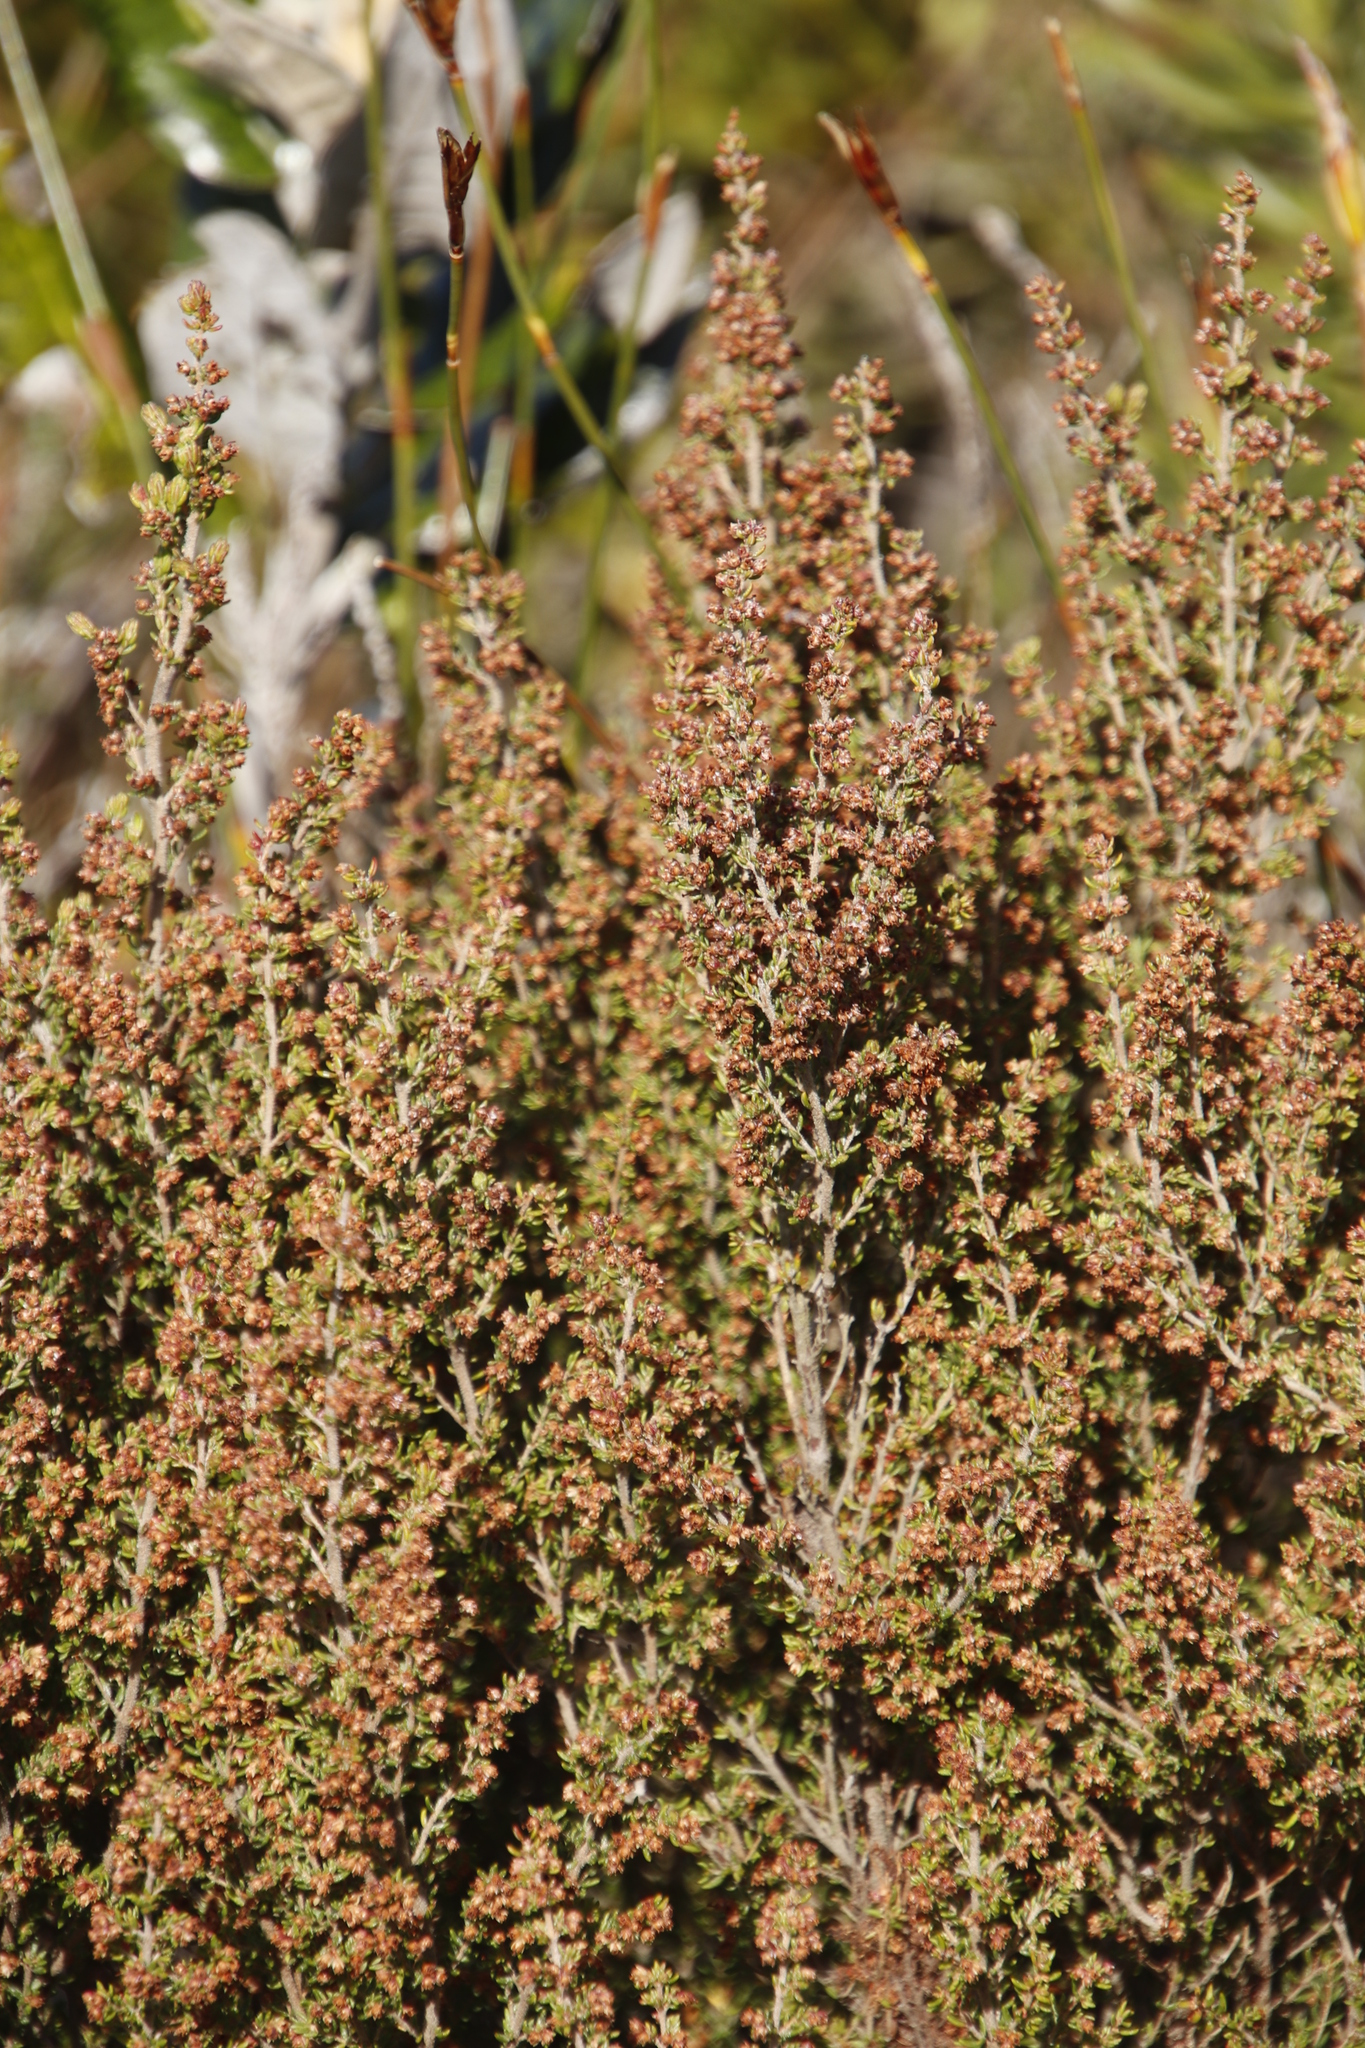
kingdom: Plantae
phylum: Tracheophyta
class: Magnoliopsida
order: Ericales
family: Ericaceae
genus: Erica
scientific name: Erica hispidula
